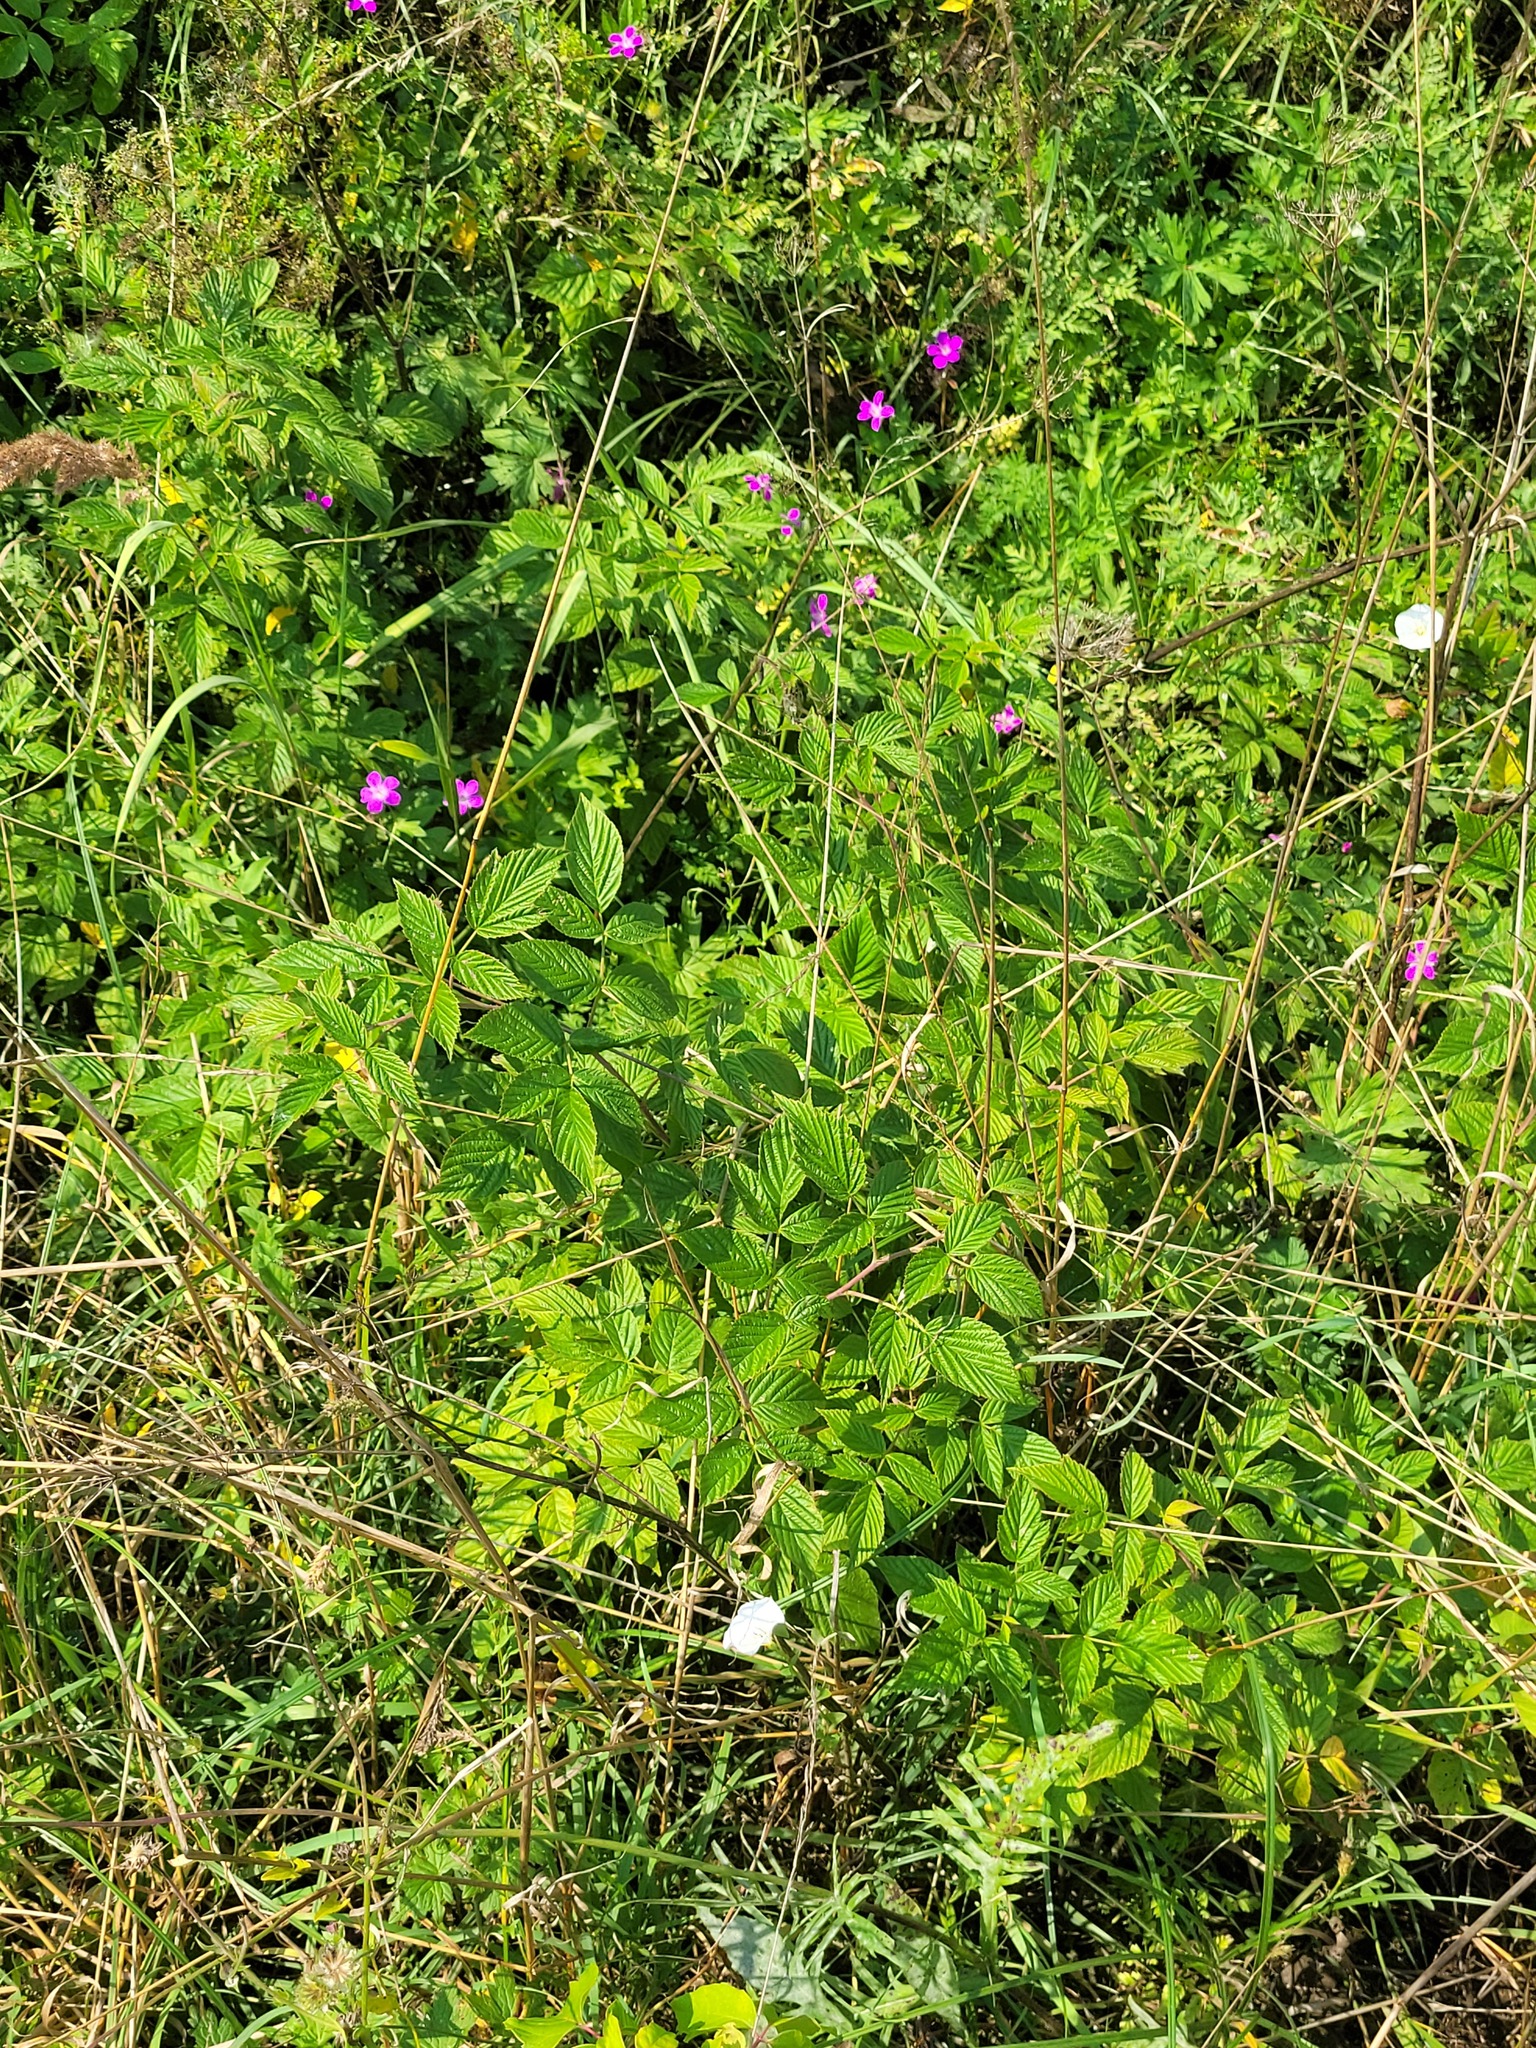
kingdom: Plantae
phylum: Tracheophyta
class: Magnoliopsida
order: Rosales
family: Rosaceae
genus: Rubus
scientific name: Rubus idaeus
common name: Raspberry
